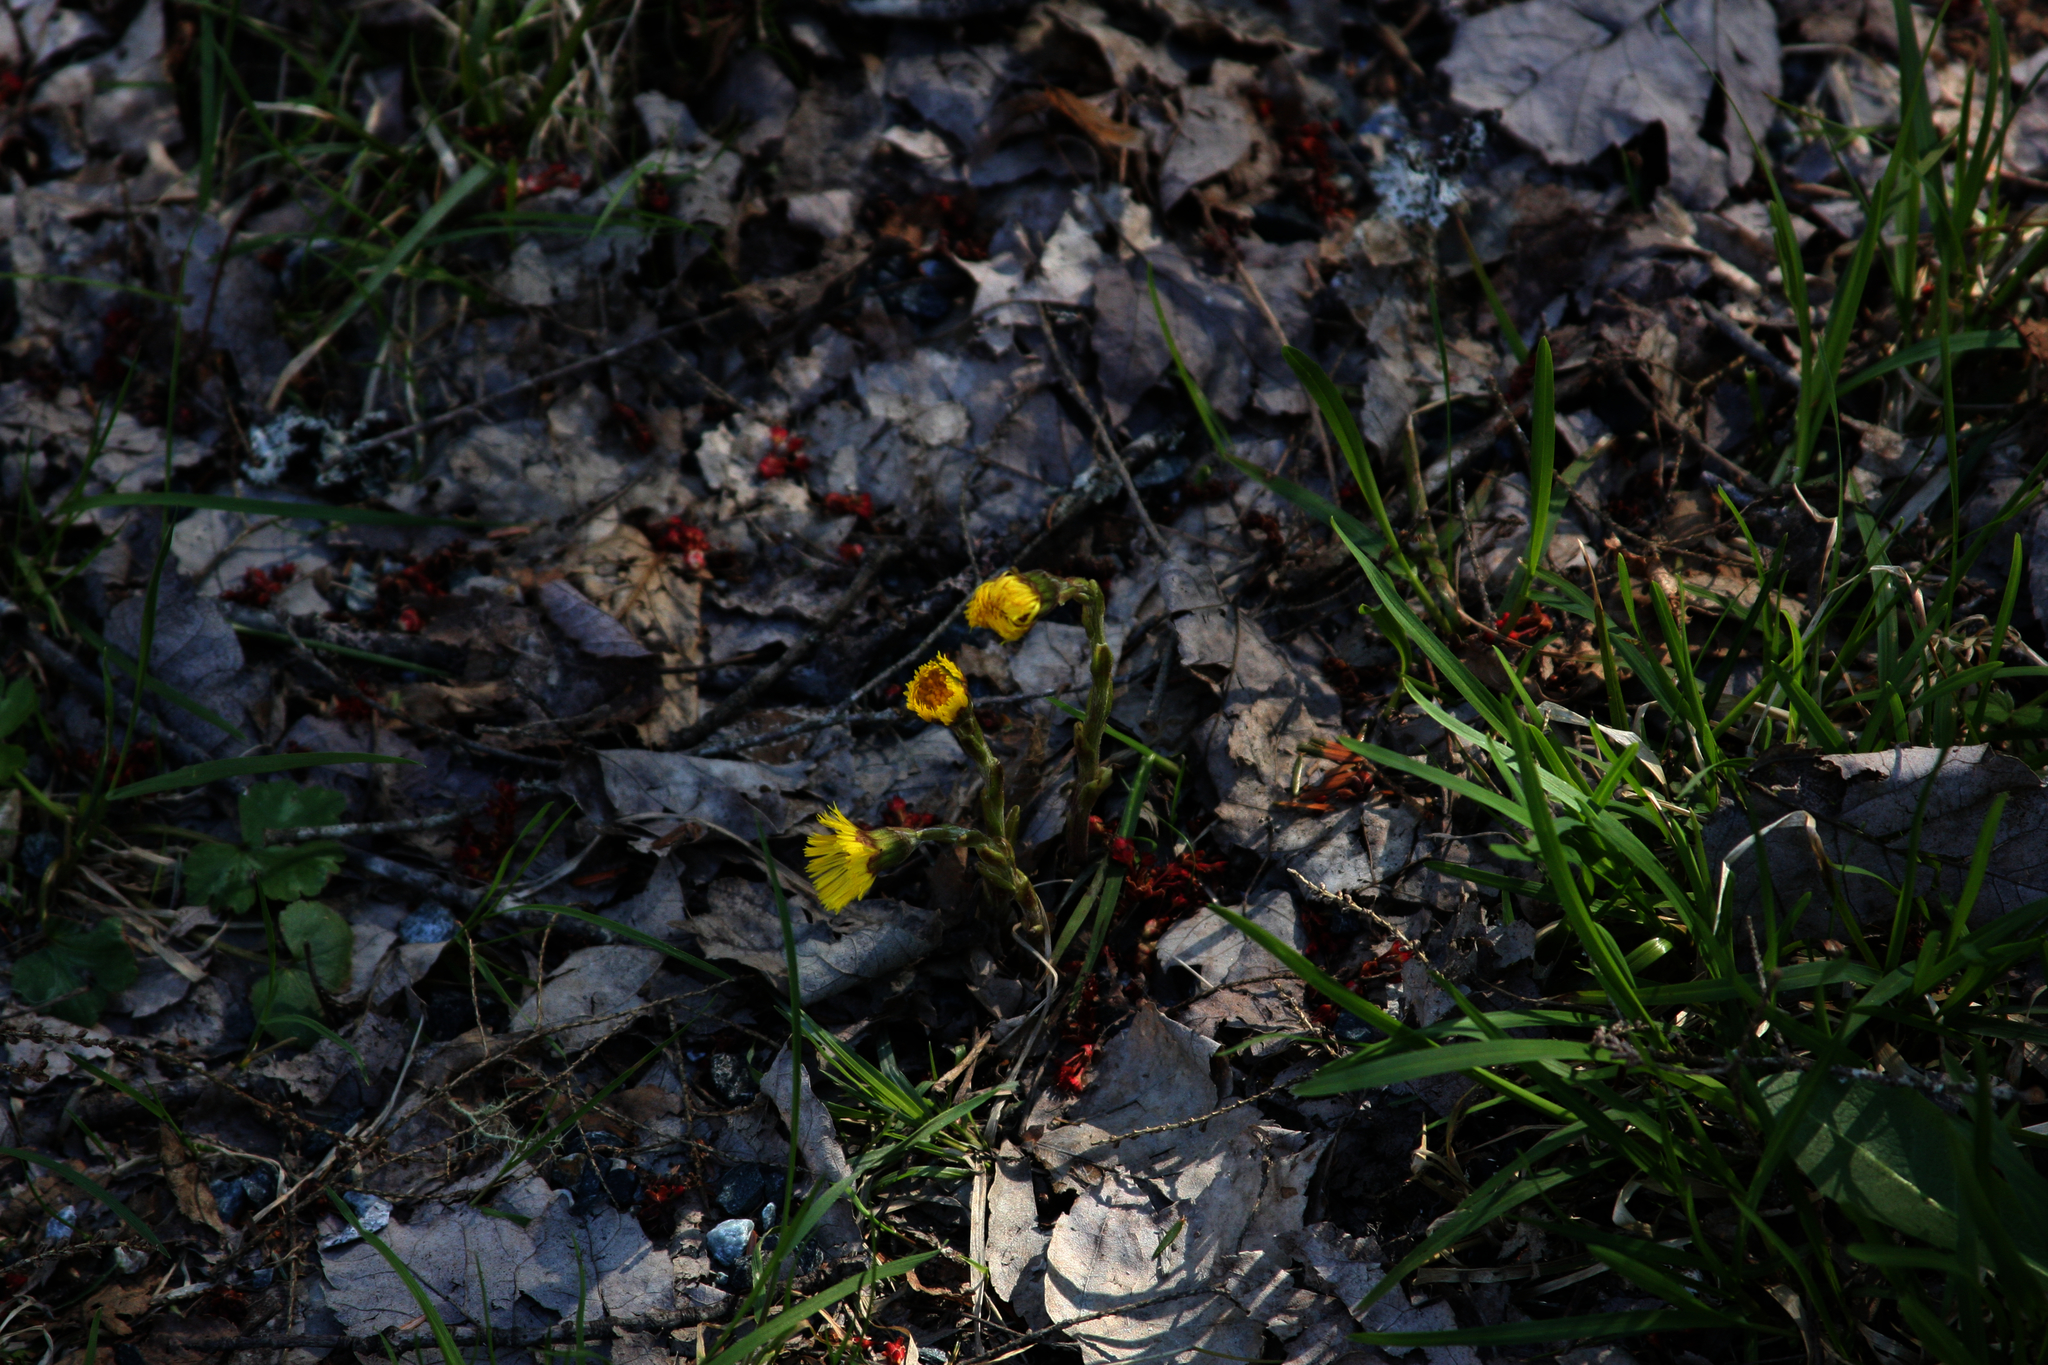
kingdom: Plantae
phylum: Tracheophyta
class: Magnoliopsida
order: Asterales
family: Asteraceae
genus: Tussilago
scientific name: Tussilago farfara
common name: Coltsfoot
